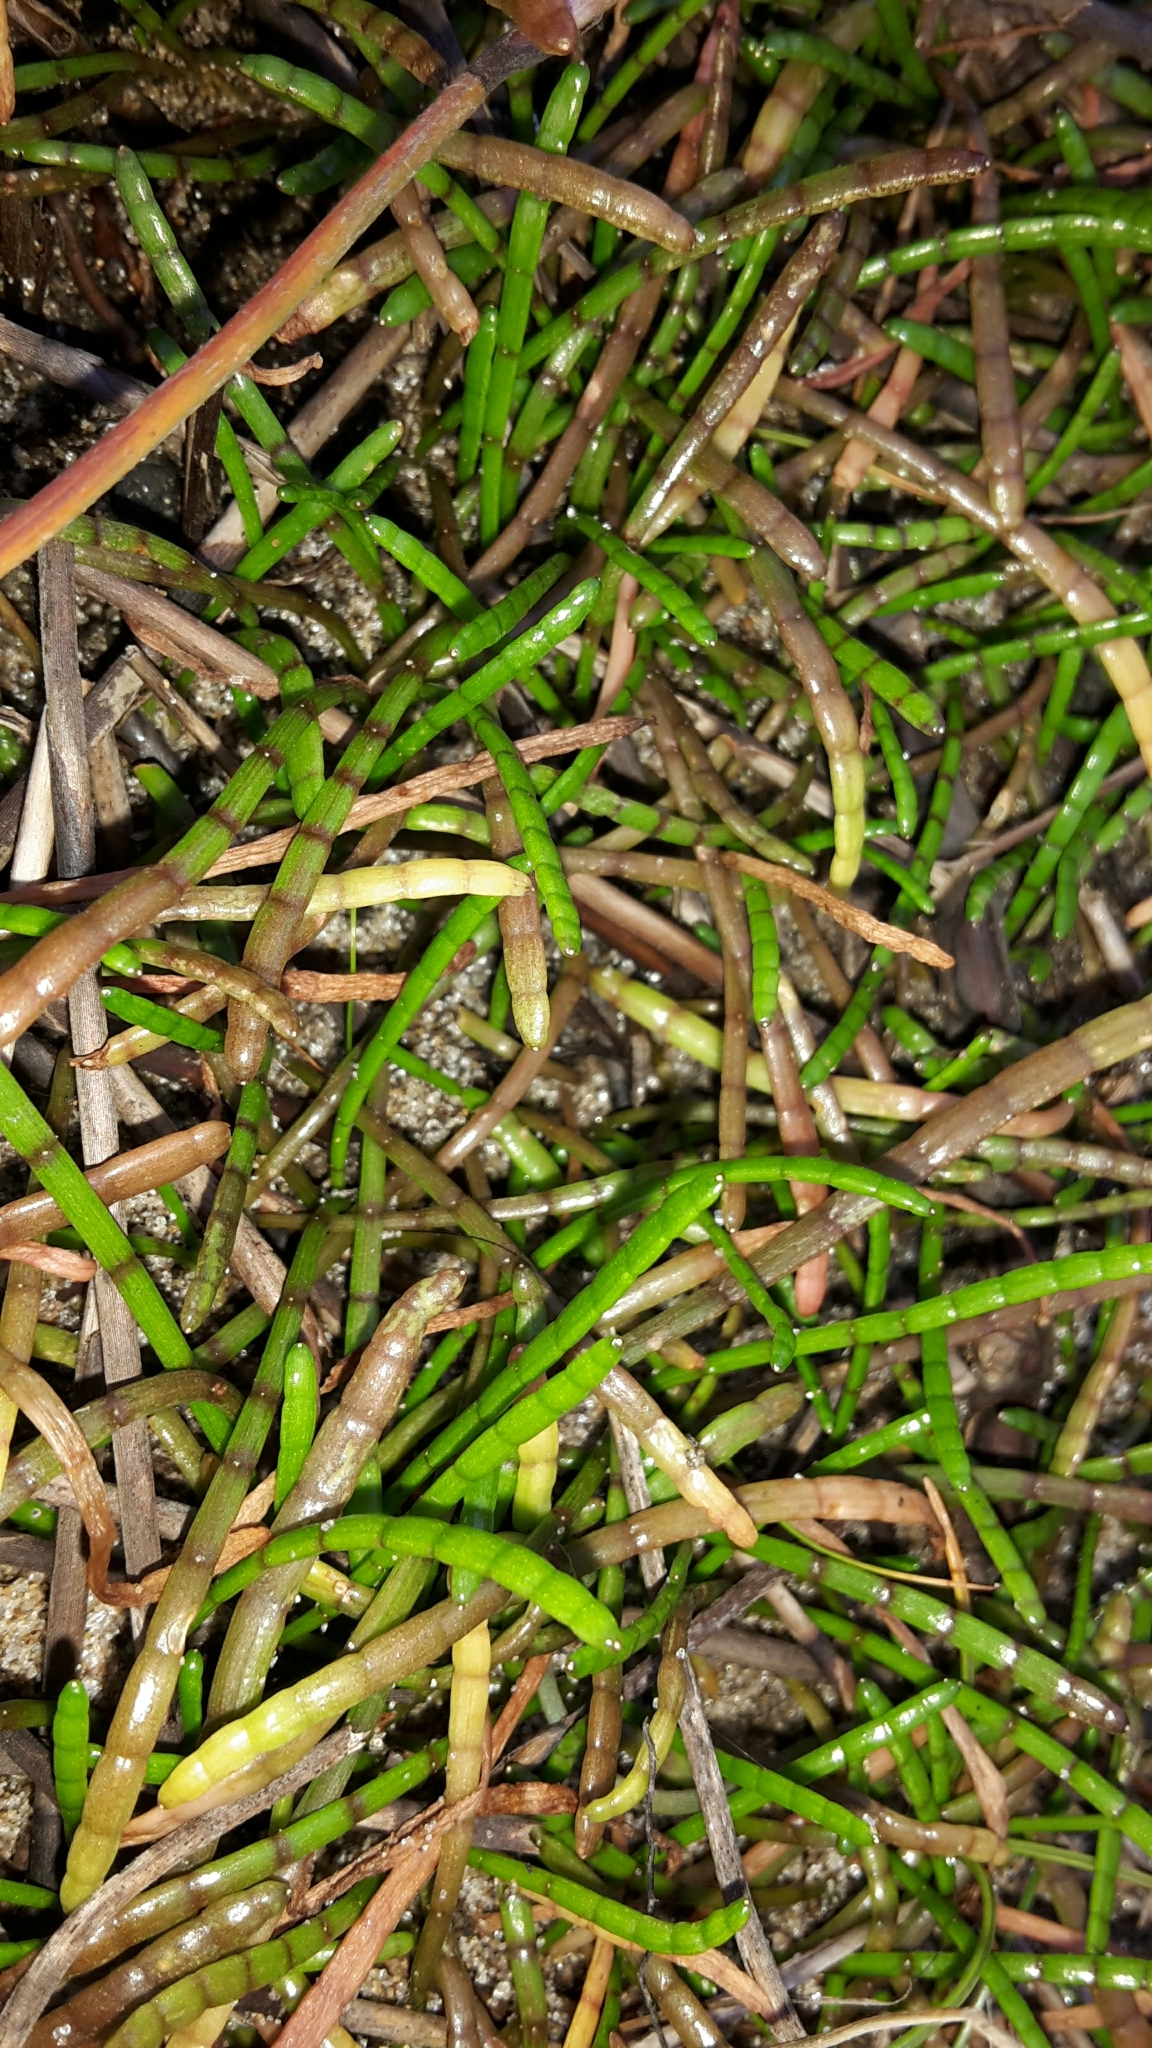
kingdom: Plantae
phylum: Tracheophyta
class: Magnoliopsida
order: Apiales
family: Apiaceae
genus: Lilaeopsis
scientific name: Lilaeopsis novae-zelandiae
